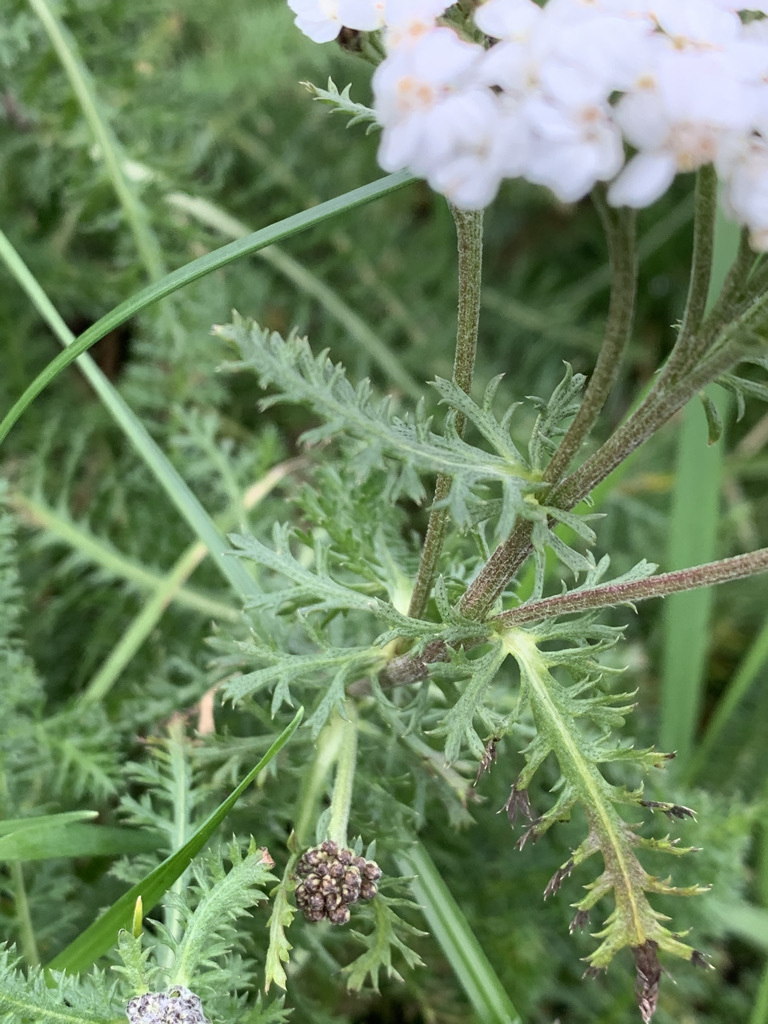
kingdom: Plantae
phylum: Tracheophyta
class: Magnoliopsida
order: Asterales
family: Asteraceae
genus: Achillea
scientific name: Achillea millefolium
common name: Yarrow
